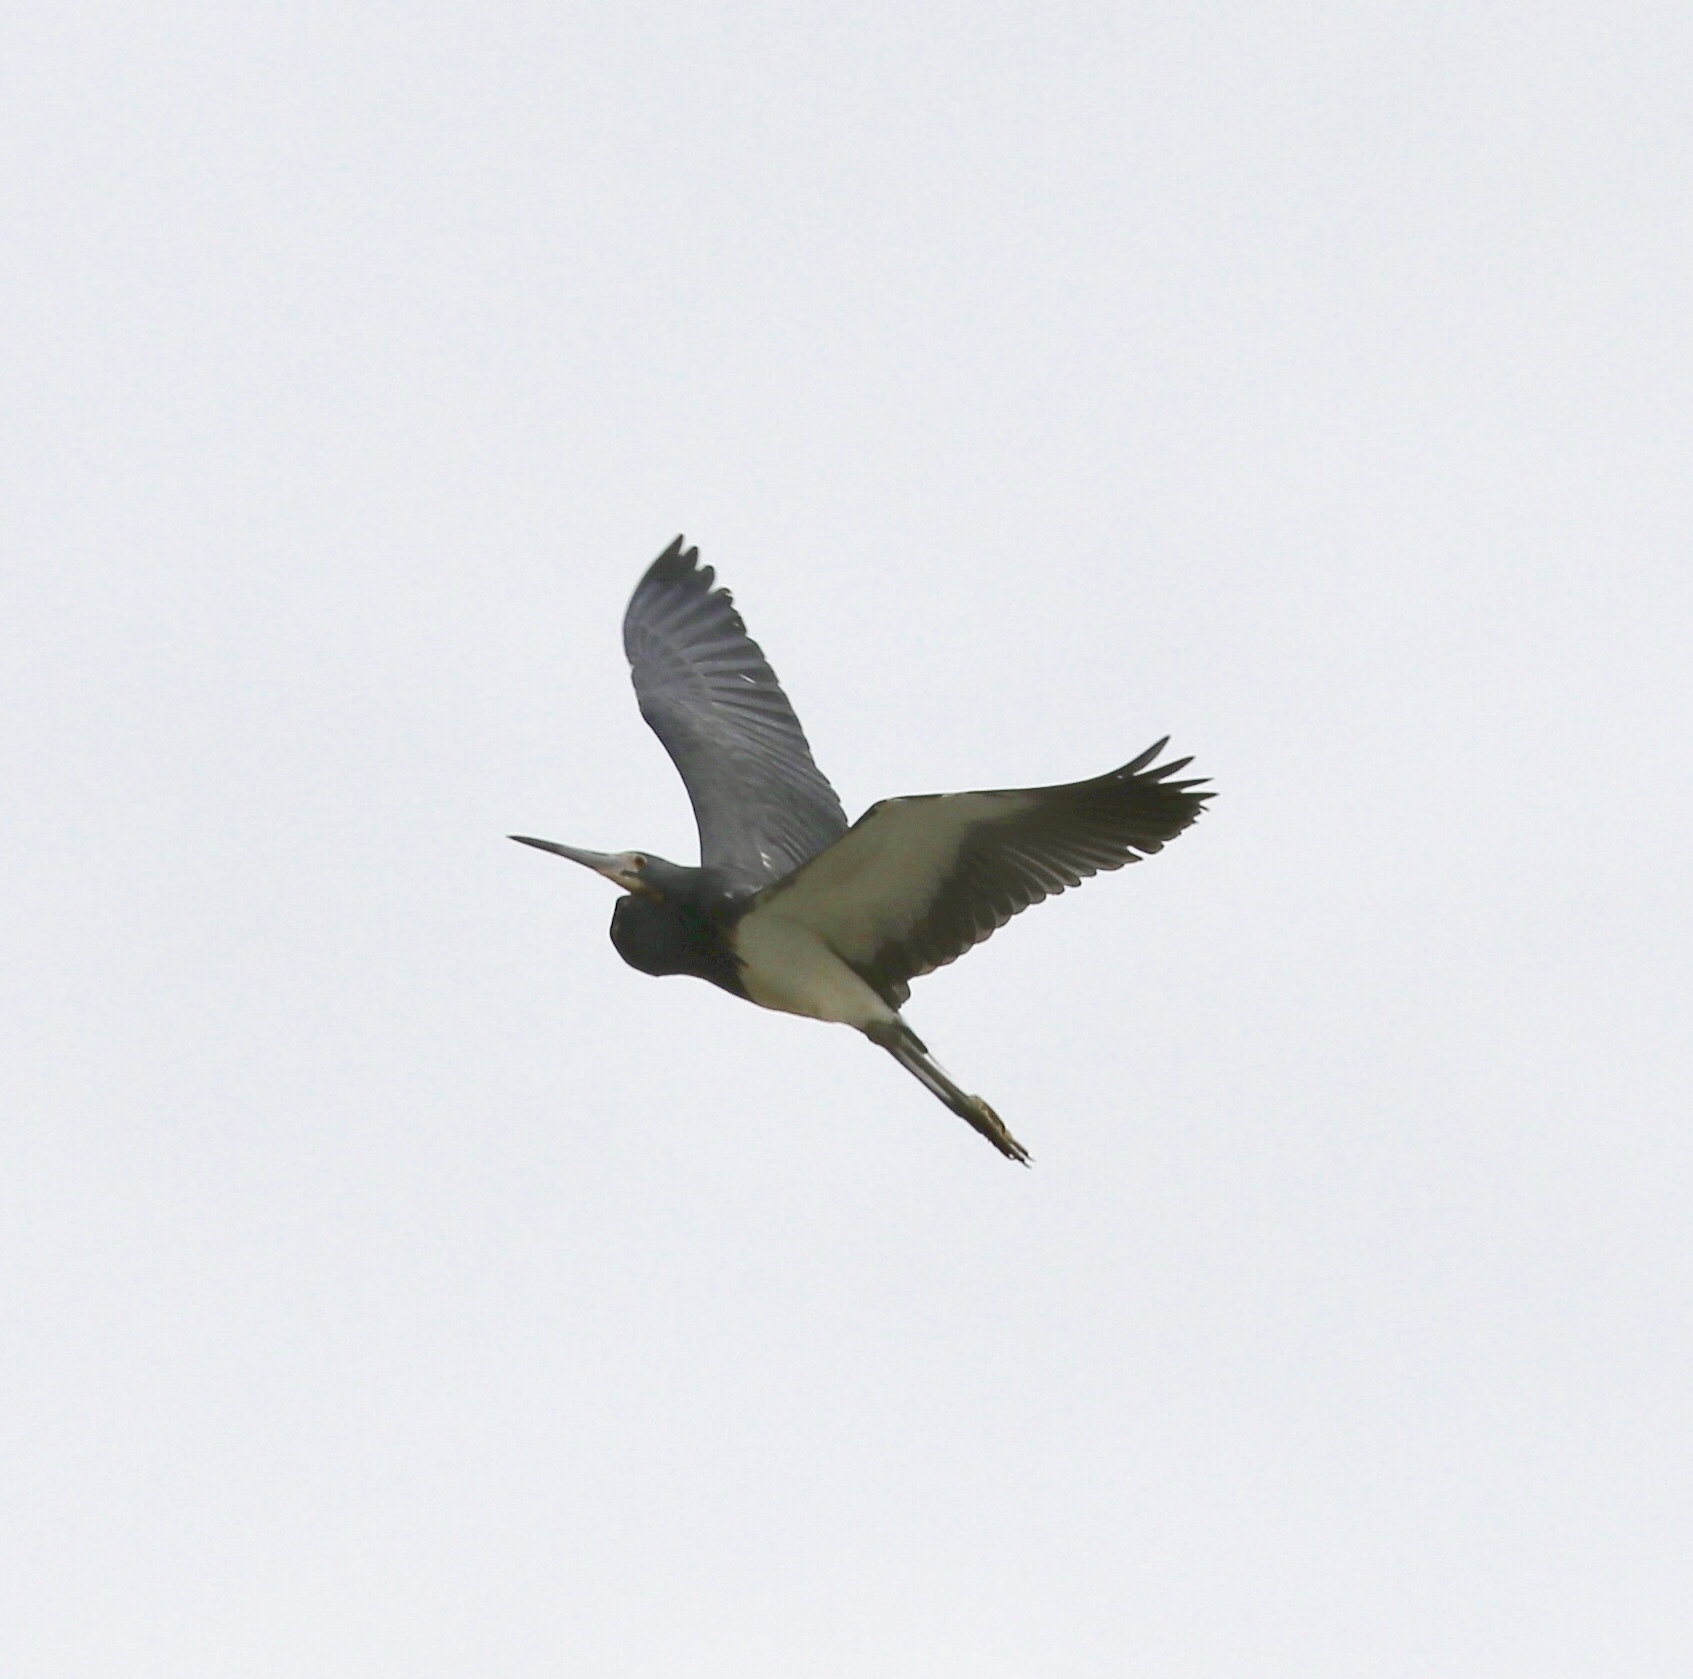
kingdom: Animalia
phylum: Chordata
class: Aves
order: Pelecaniformes
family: Ardeidae
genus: Egretta
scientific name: Egretta tricolor
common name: Tricolored heron
